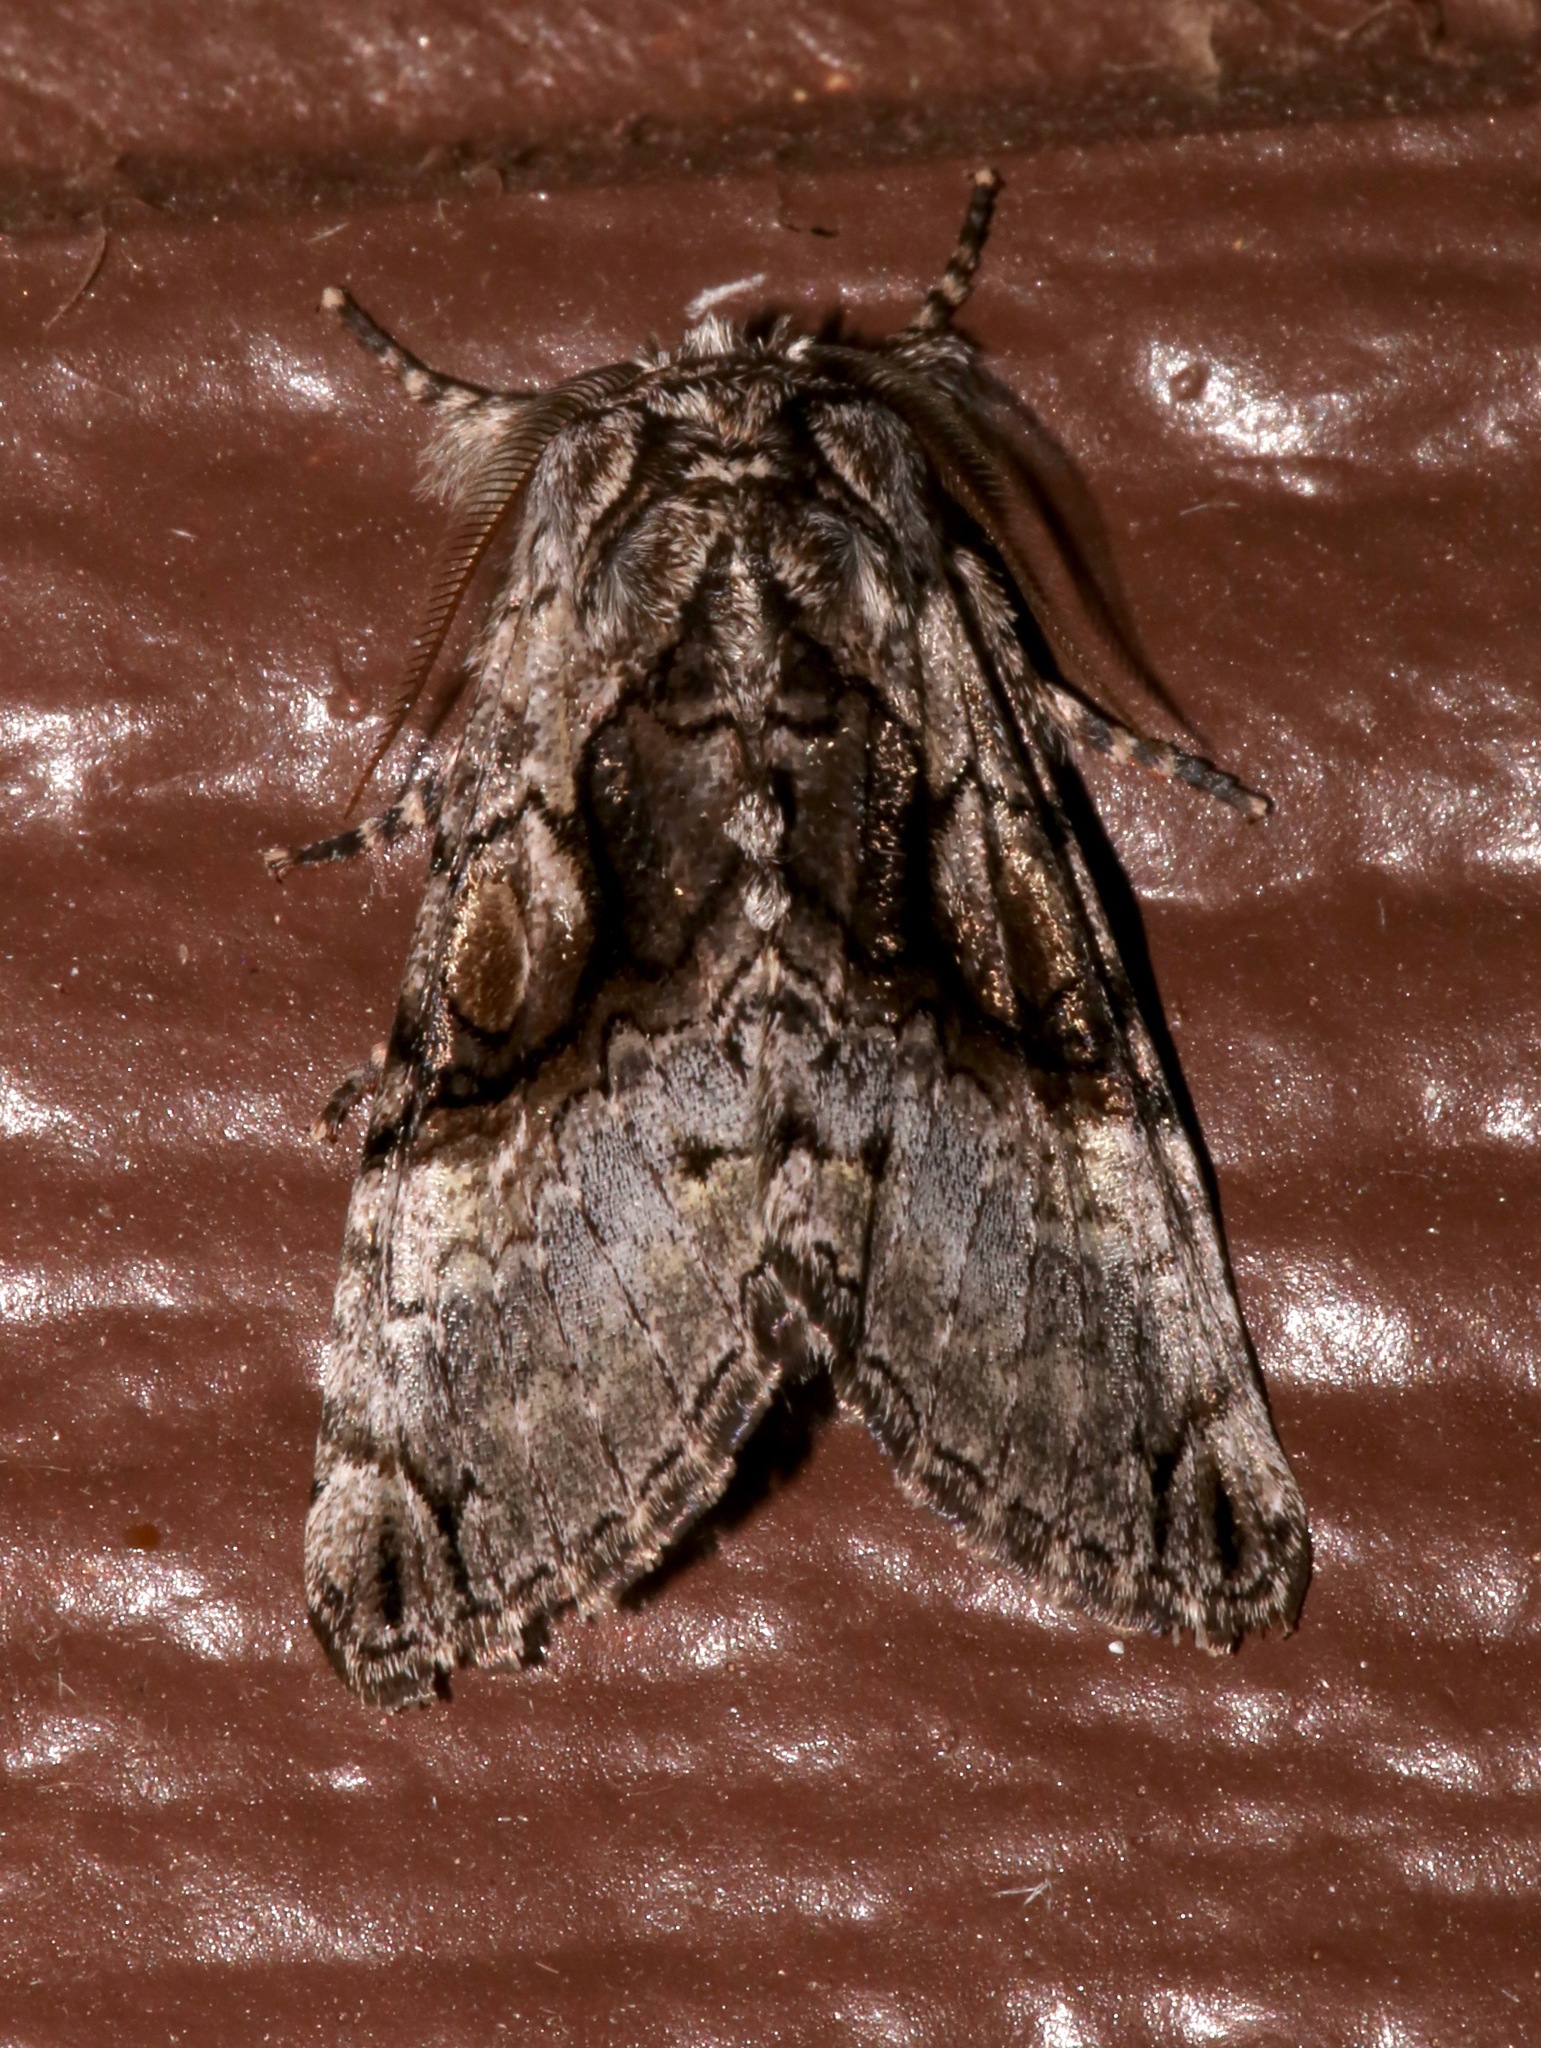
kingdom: Animalia
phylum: Arthropoda
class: Insecta
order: Lepidoptera
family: Noctuidae
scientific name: Noctuidae
